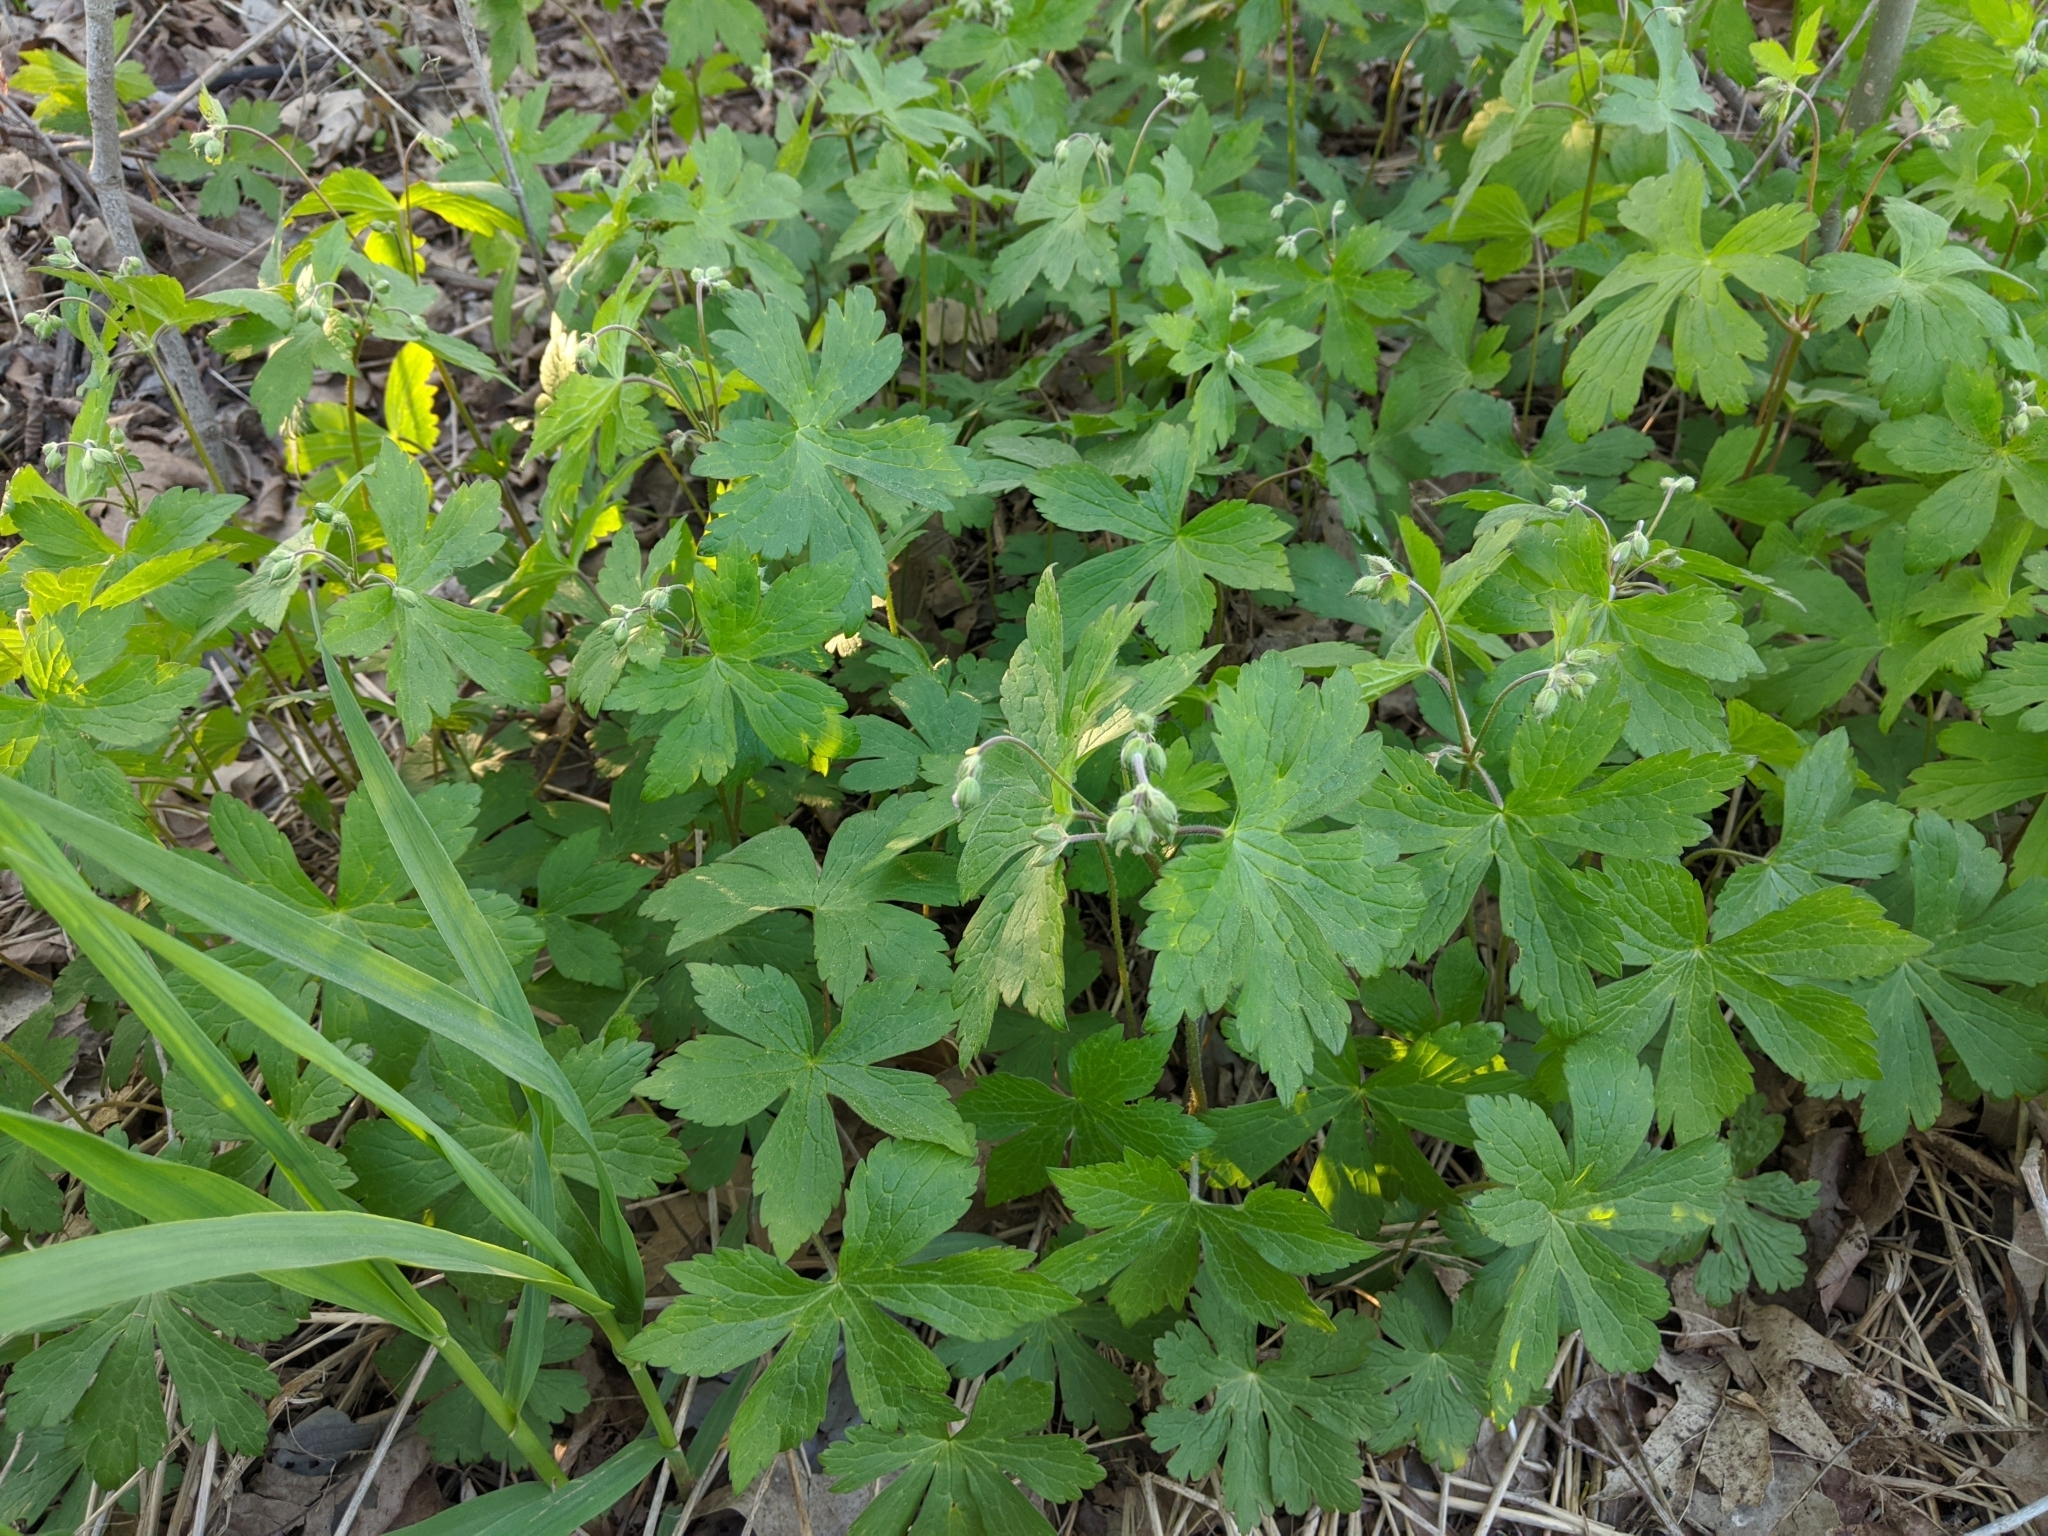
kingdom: Plantae
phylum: Tracheophyta
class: Magnoliopsida
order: Geraniales
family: Geraniaceae
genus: Geranium
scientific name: Geranium maculatum
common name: Spotted geranium
